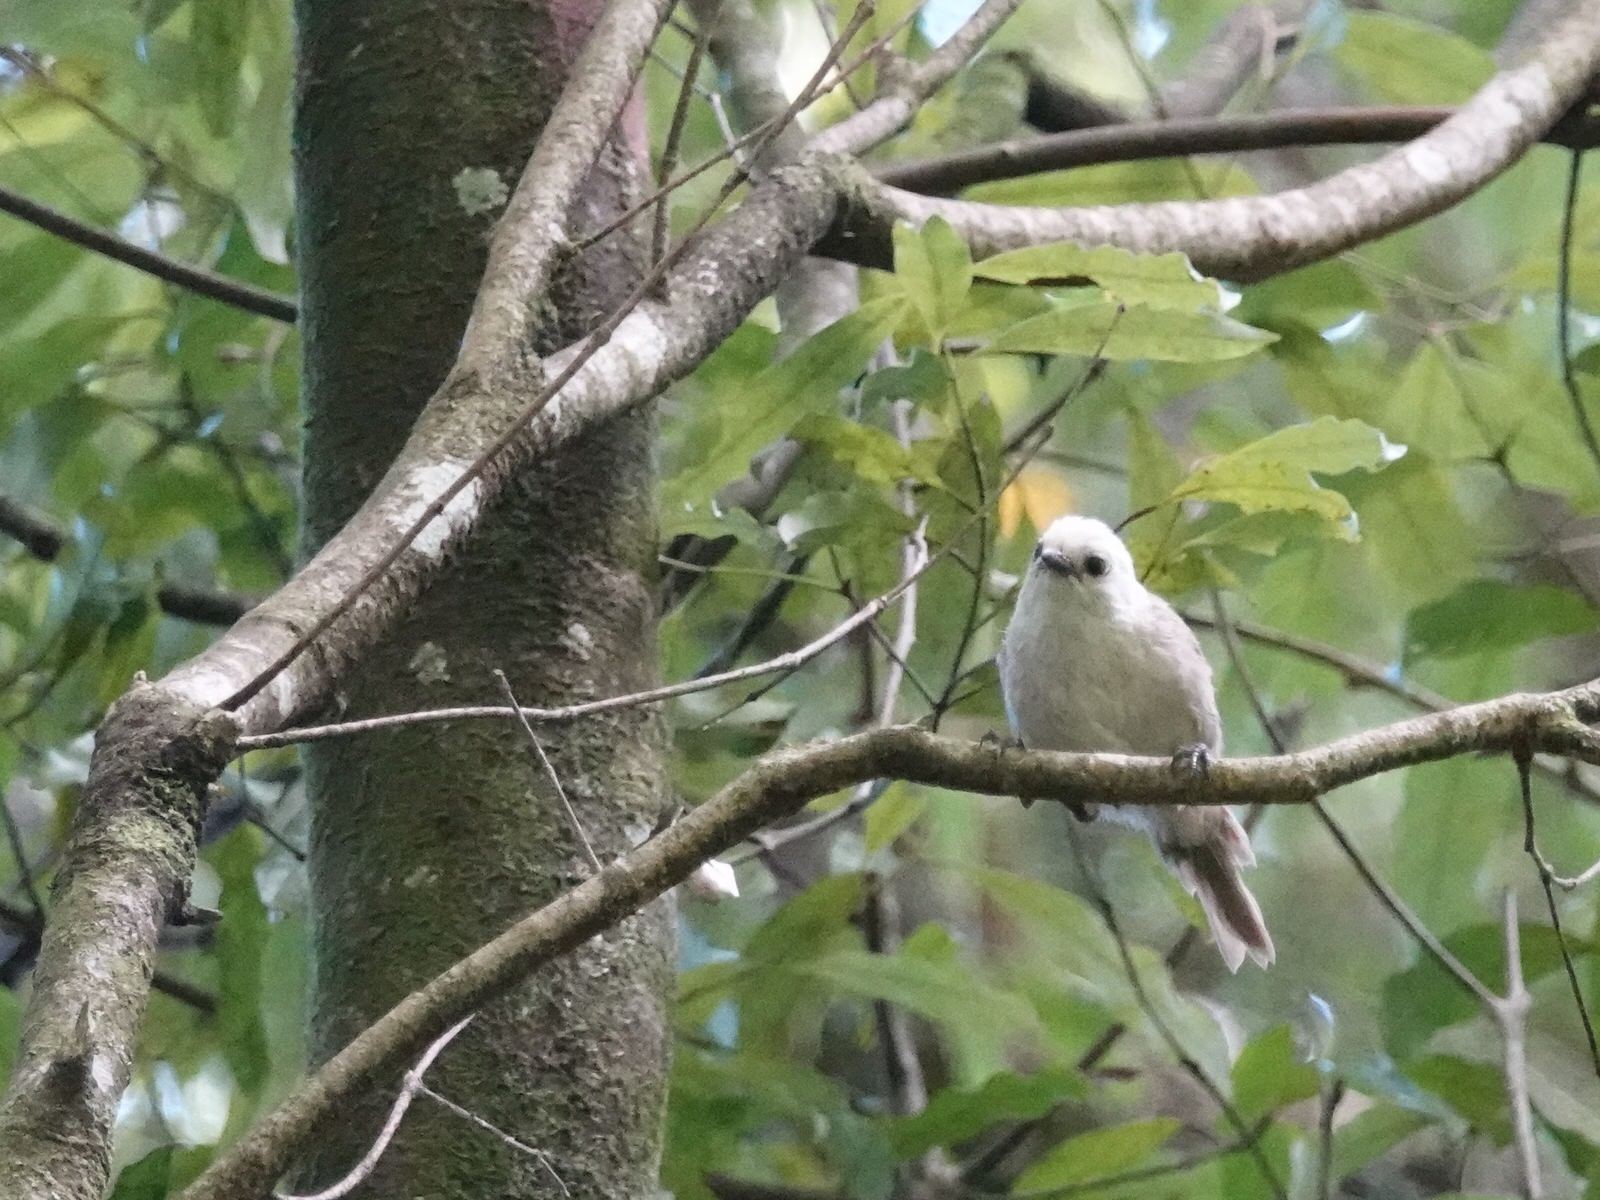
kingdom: Animalia
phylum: Chordata
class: Aves
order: Passeriformes
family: Acanthizidae
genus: Mohoua
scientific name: Mohoua albicilla
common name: Whitehead
